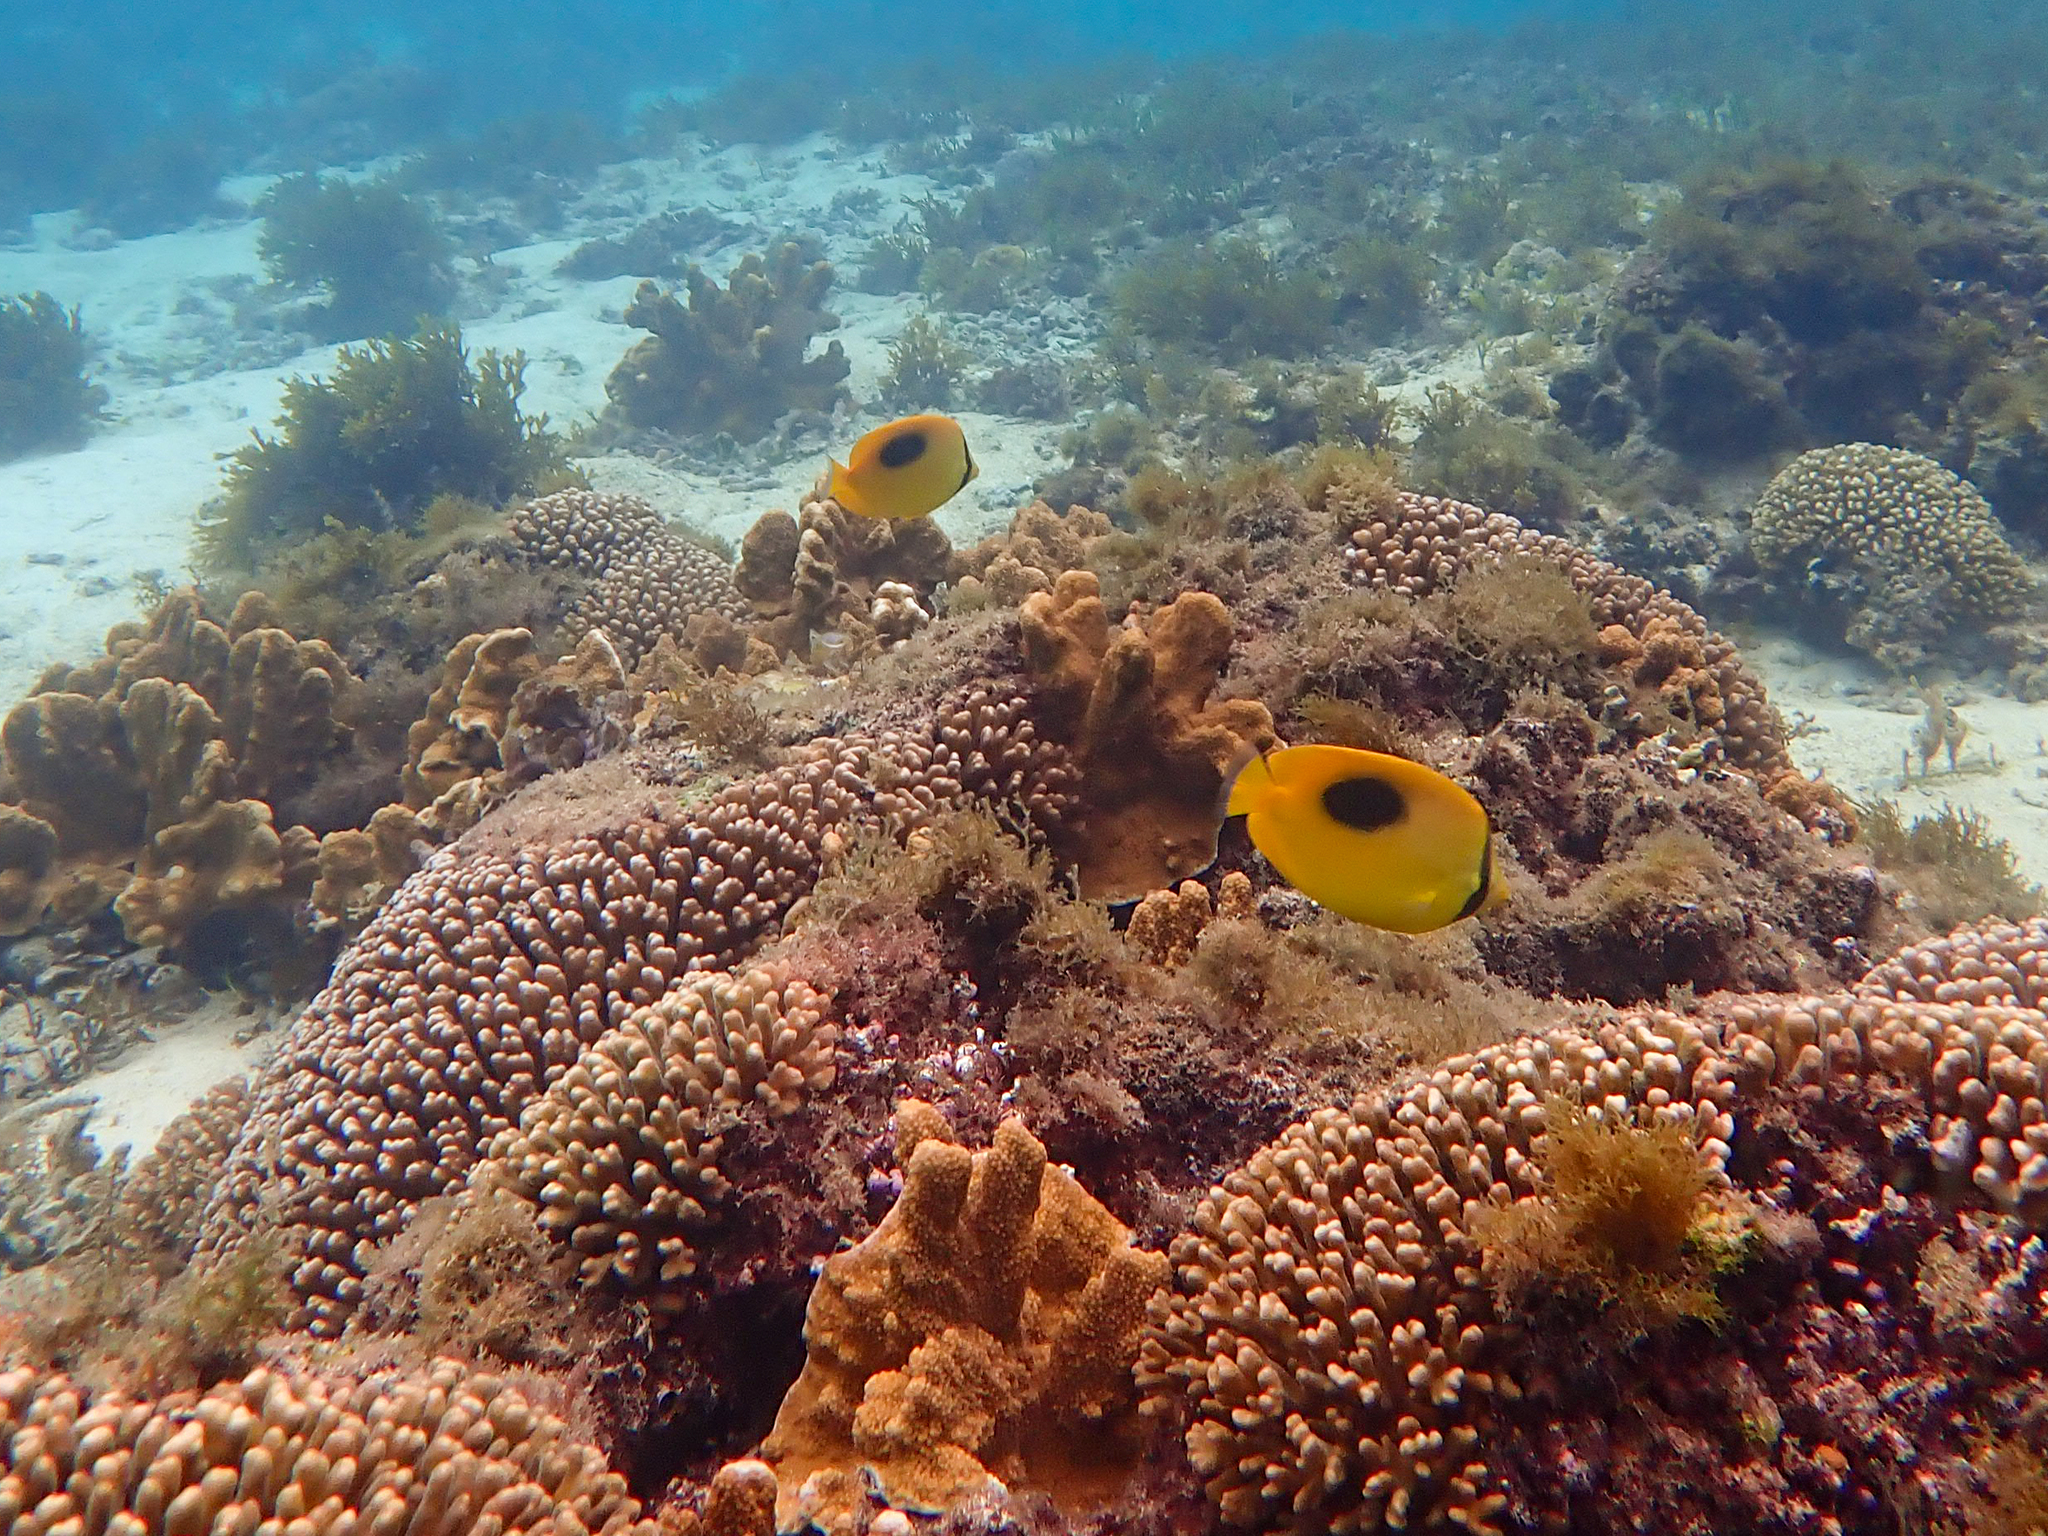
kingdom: Animalia
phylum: Chordata
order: Perciformes
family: Chaetodontidae
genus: Chaetodon
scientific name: Chaetodon speculum
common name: Mirror butterflyfish
